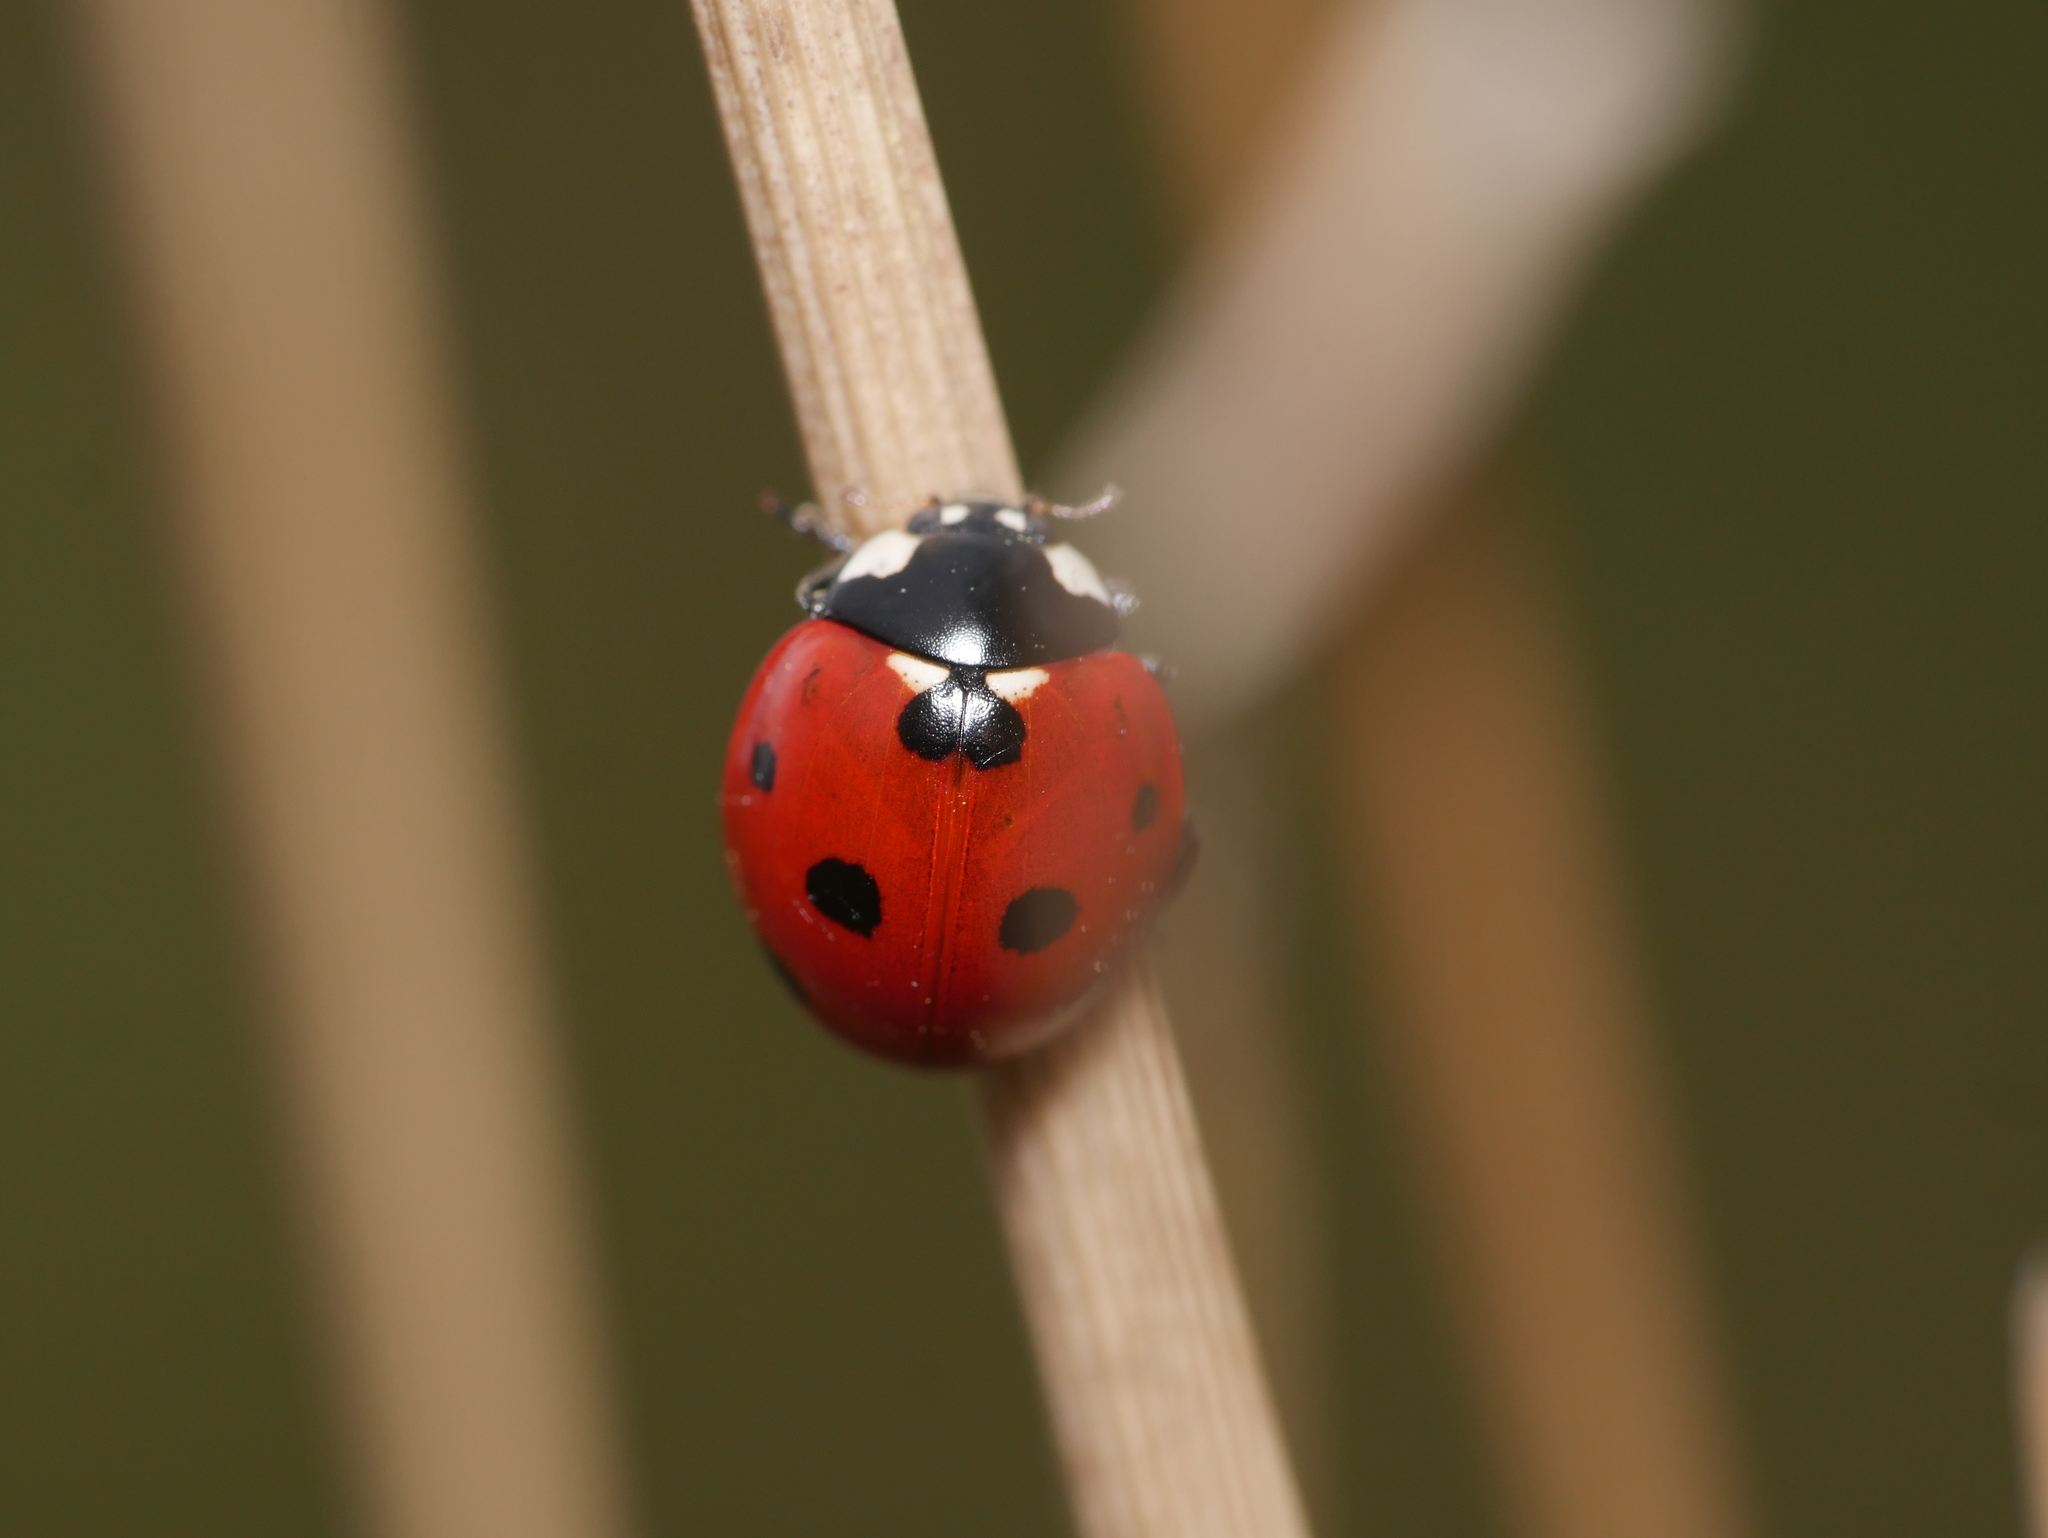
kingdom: Animalia
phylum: Arthropoda
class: Insecta
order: Coleoptera
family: Coccinellidae
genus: Coccinella
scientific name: Coccinella septempunctata
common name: Sevenspotted lady beetle
